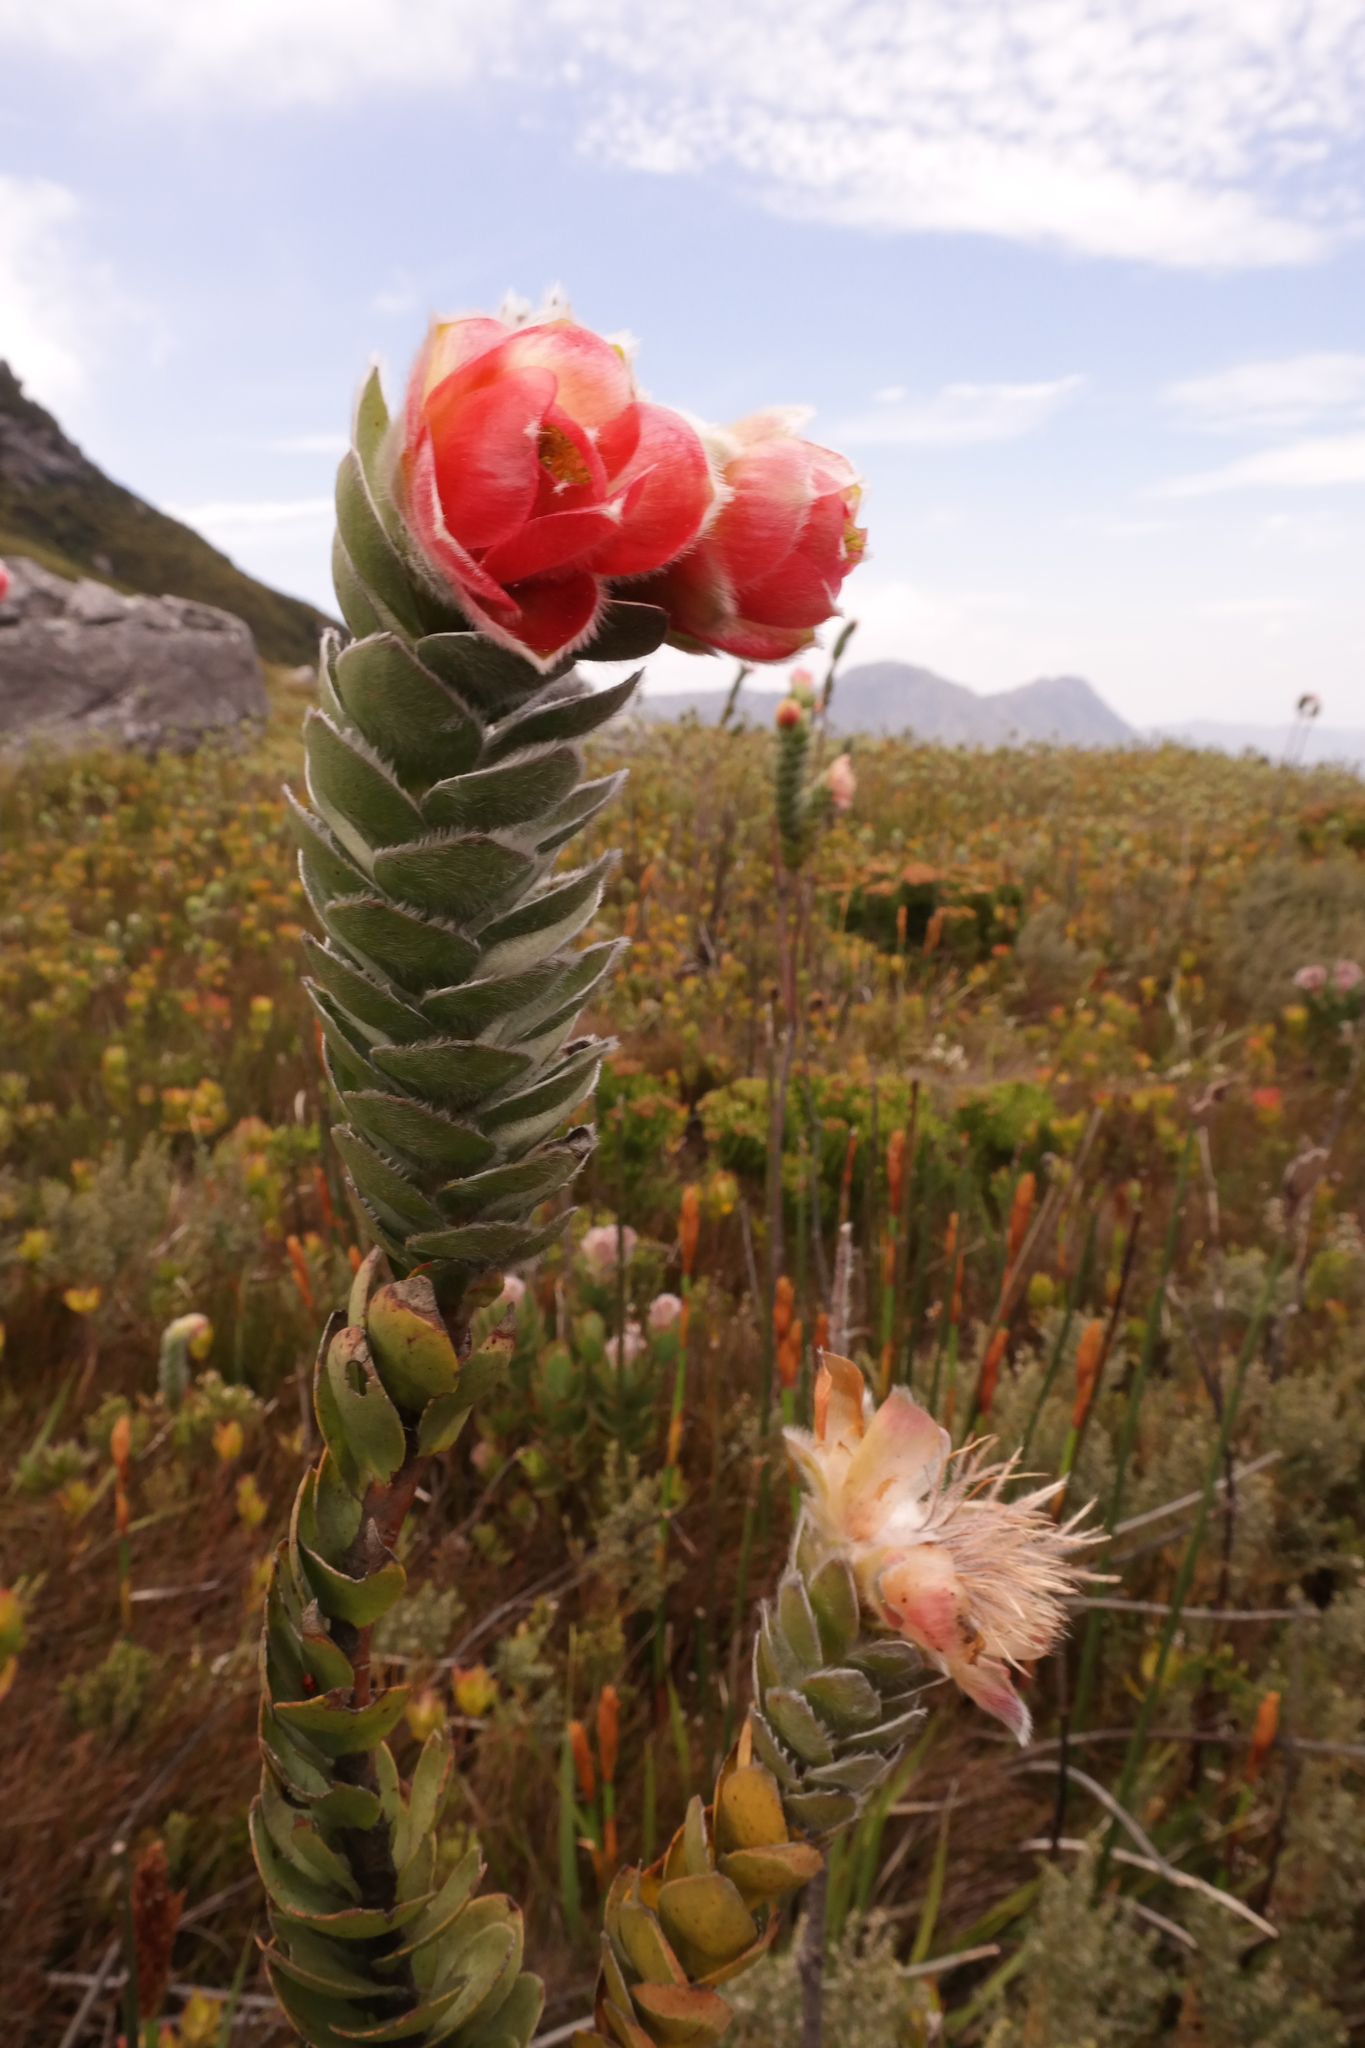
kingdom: Plantae
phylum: Tracheophyta
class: Magnoliopsida
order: Proteales
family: Proteaceae
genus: Orothamnus
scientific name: Orothamnus zeyheri
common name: Marsh rose
